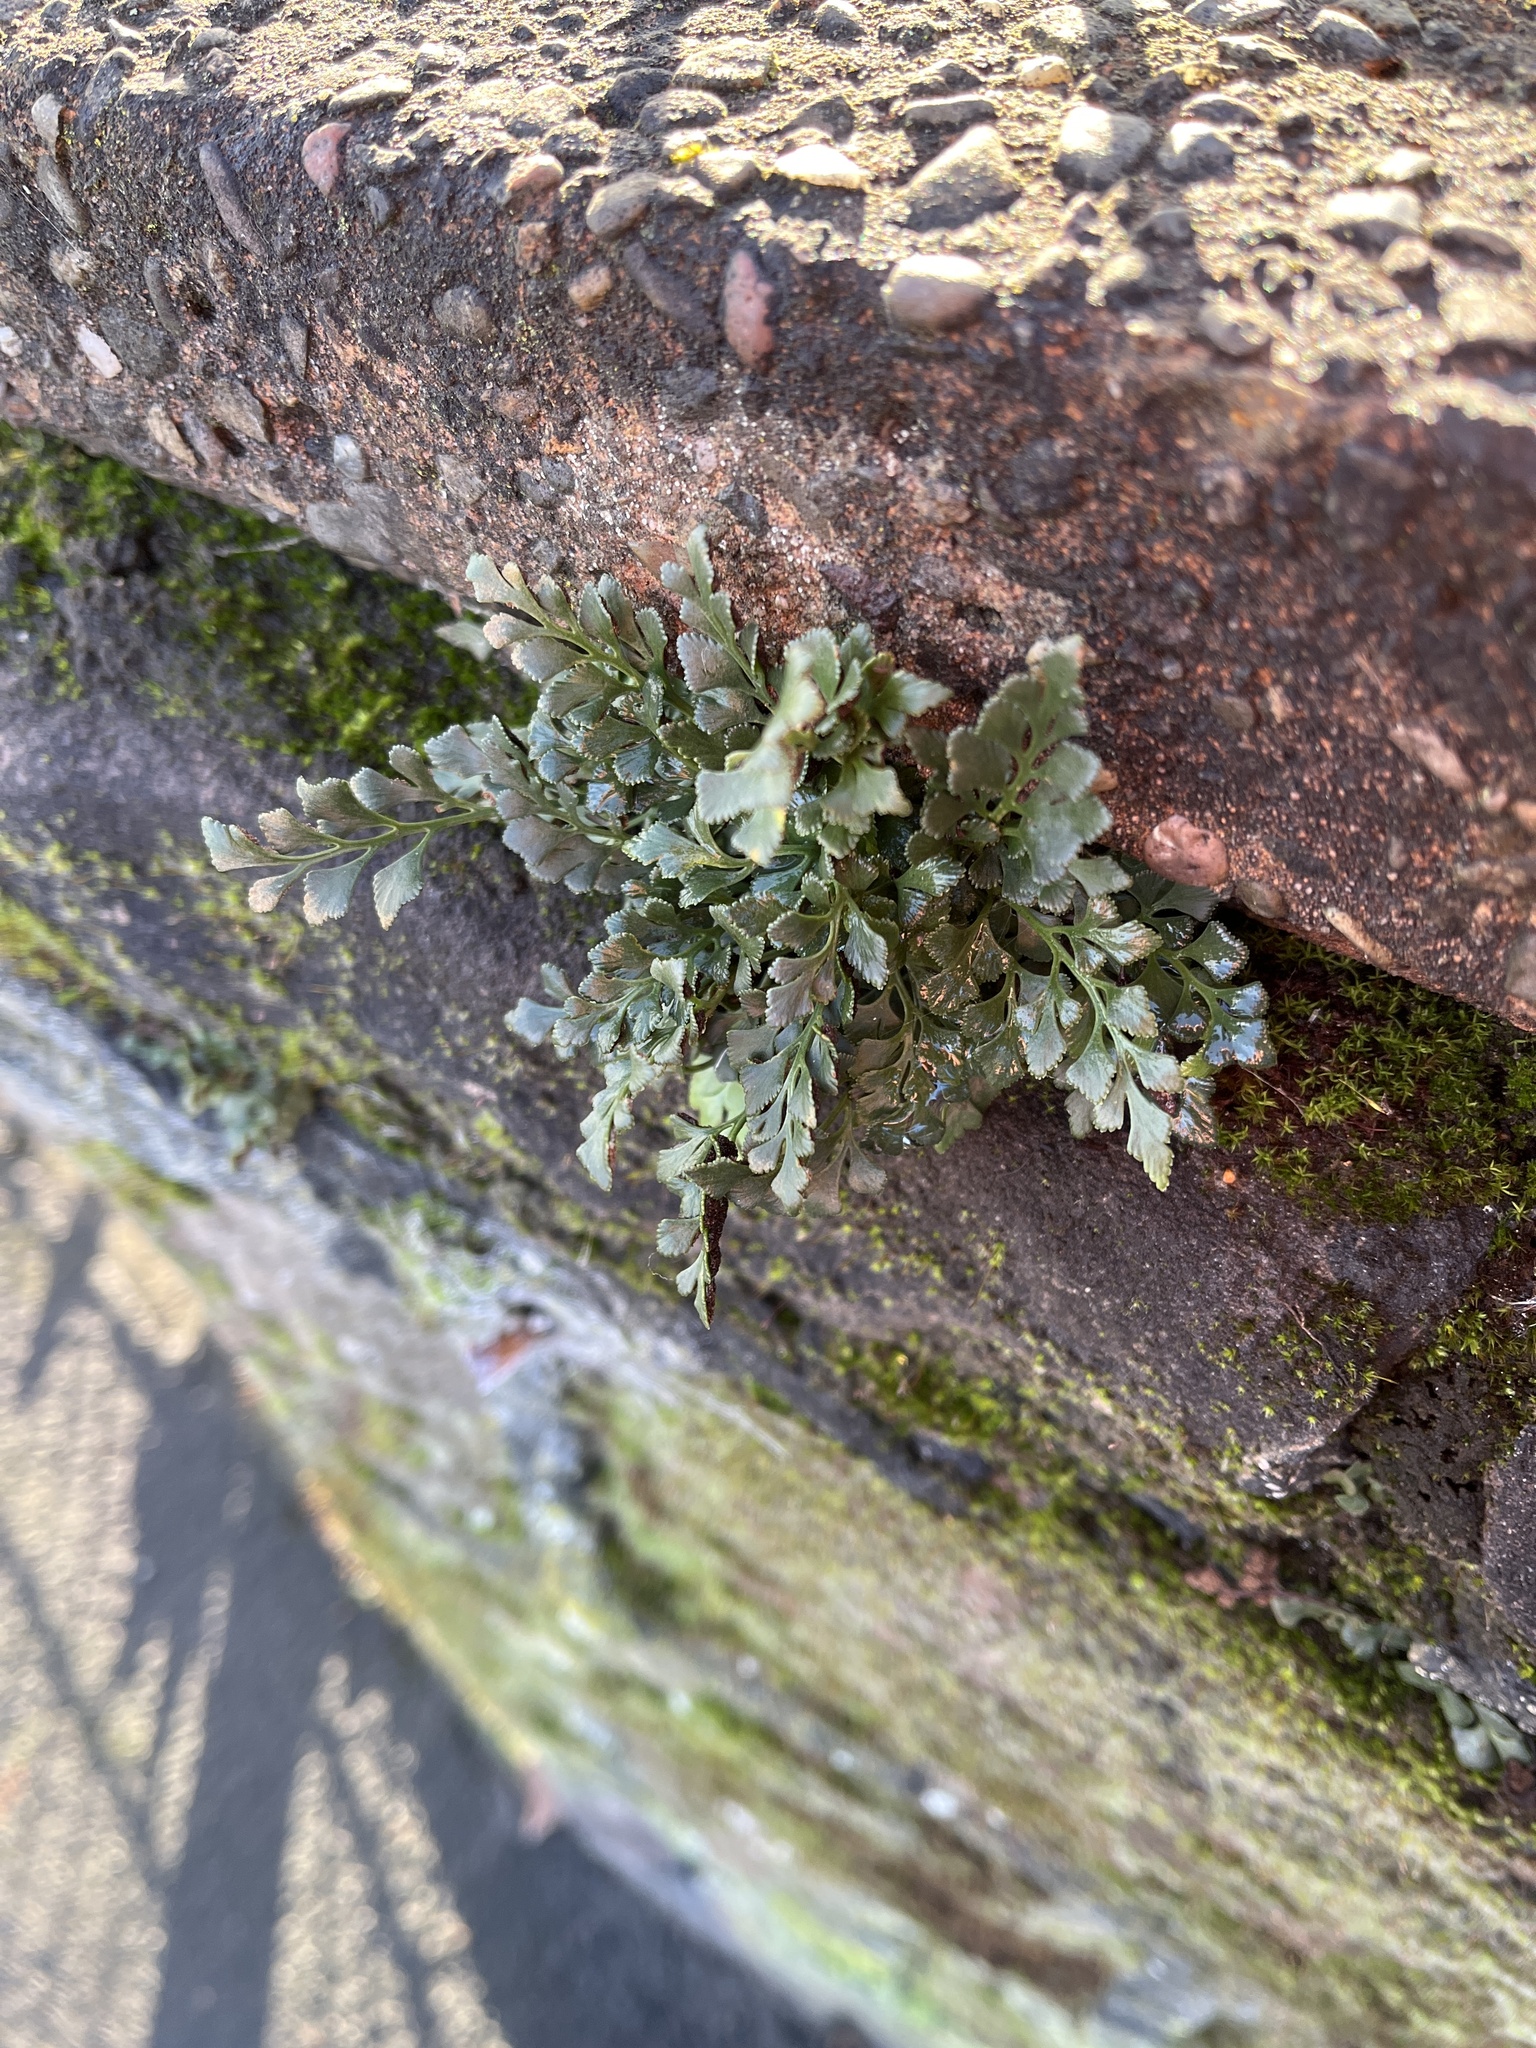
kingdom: Plantae
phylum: Tracheophyta
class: Polypodiopsida
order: Polypodiales
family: Aspleniaceae
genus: Asplenium
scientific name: Asplenium ruta-muraria
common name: Wall-rue
